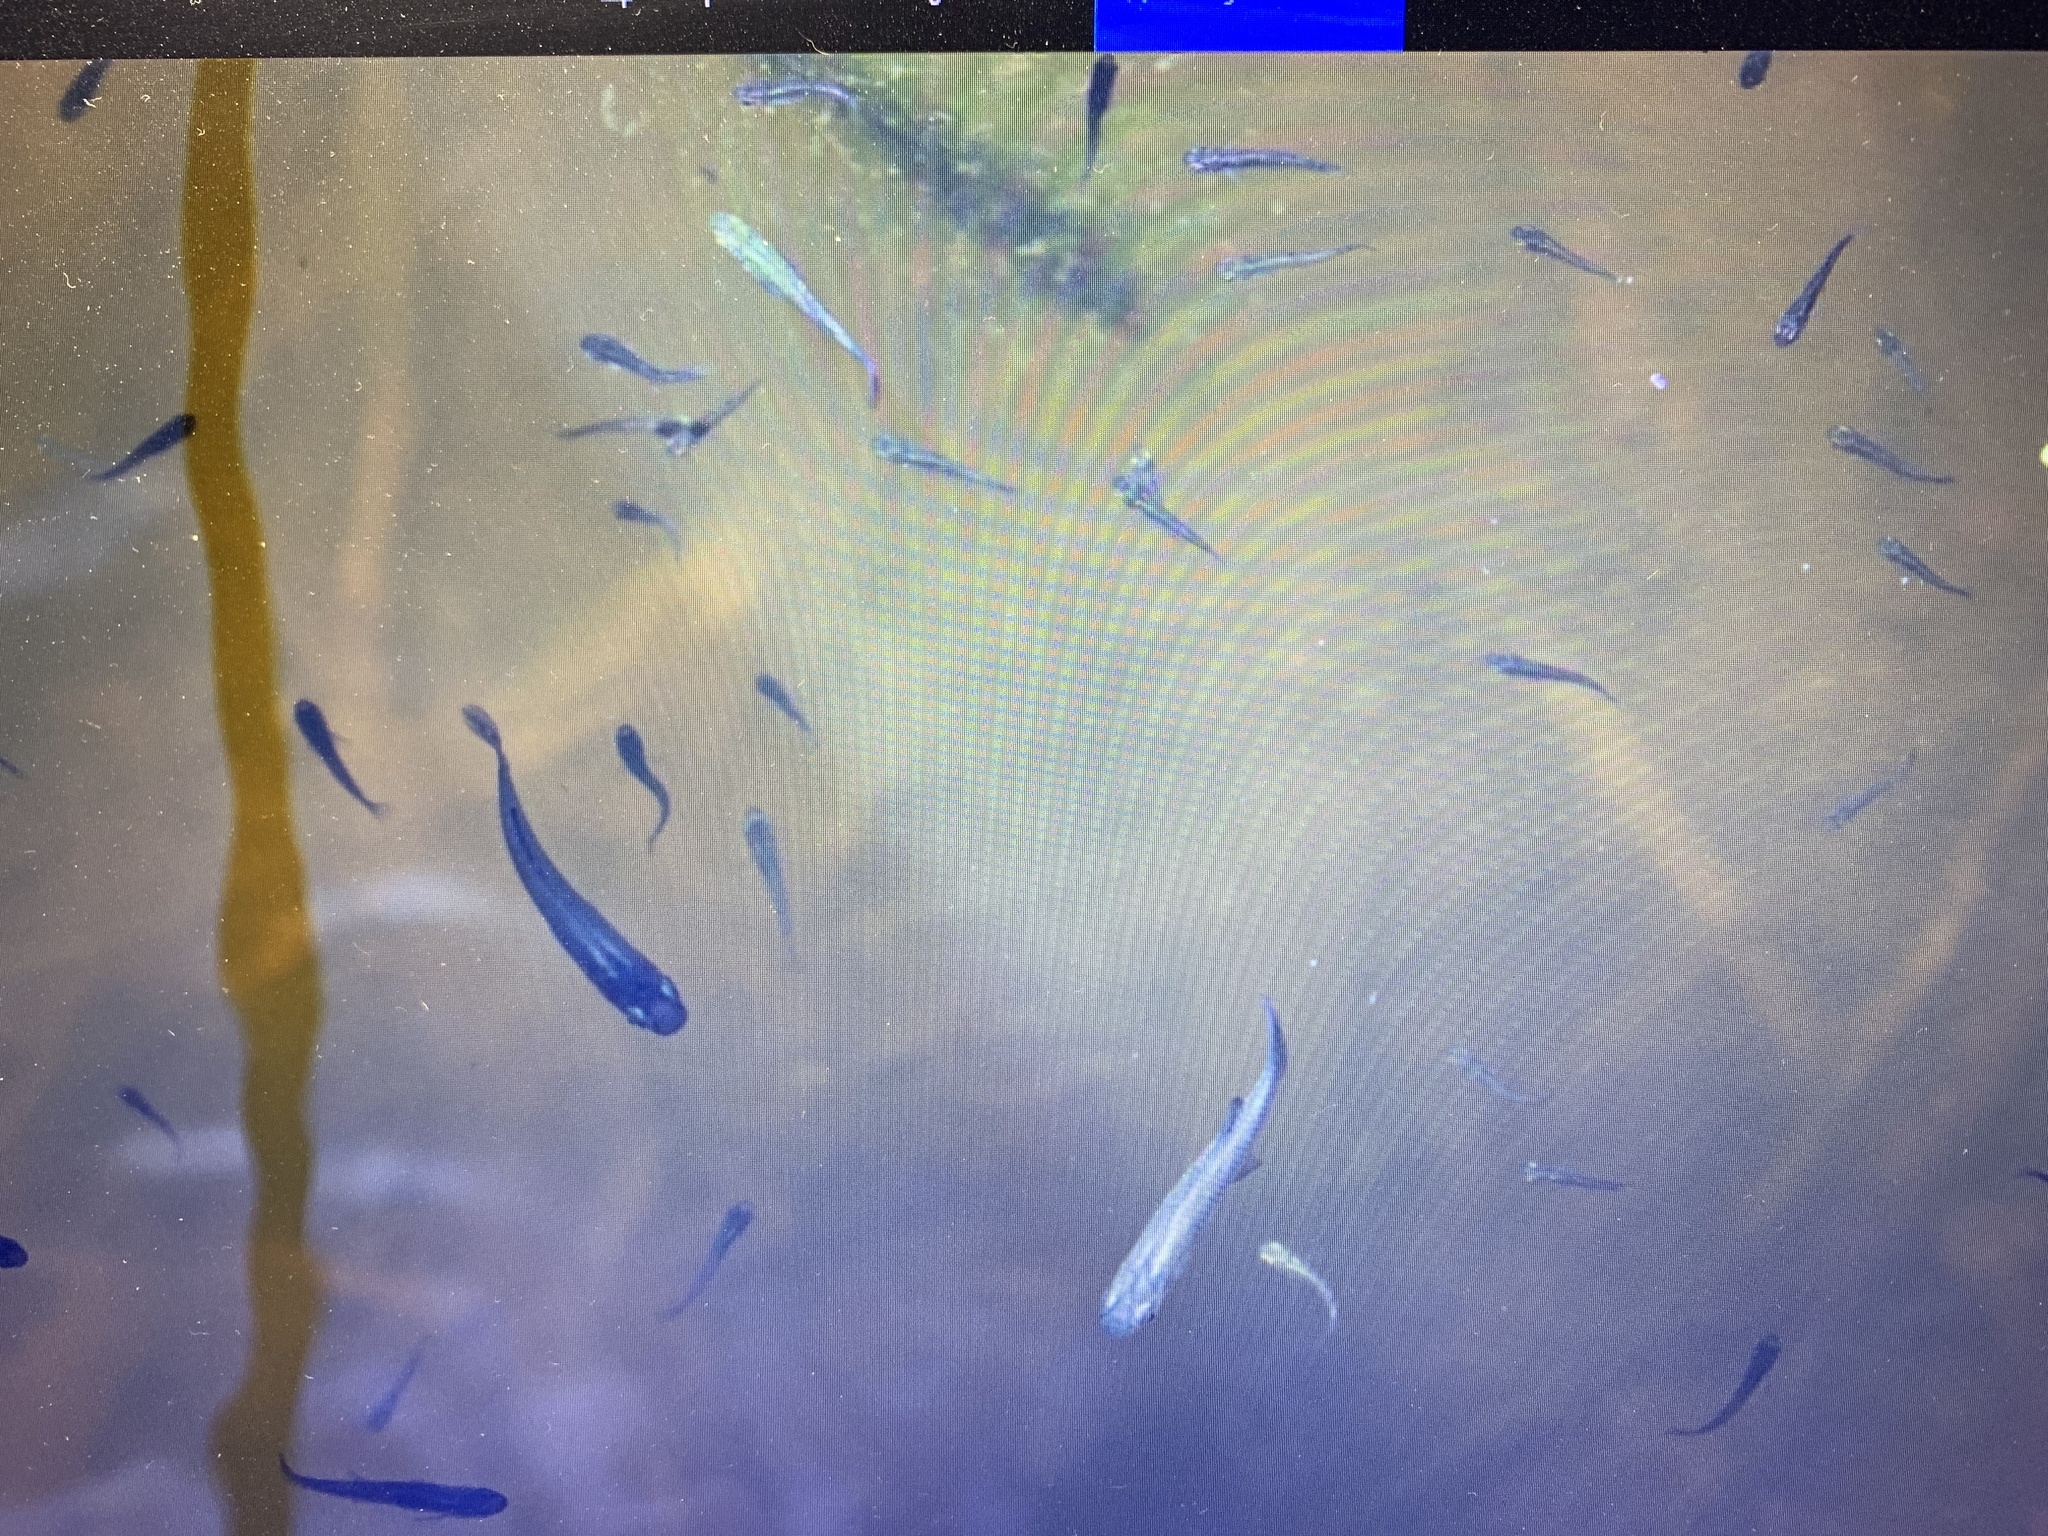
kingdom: Animalia
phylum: Chordata
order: Cyprinodontiformes
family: Poeciliidae
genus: Gambusia
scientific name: Gambusia holbrooki
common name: Eastern mosquitofish
